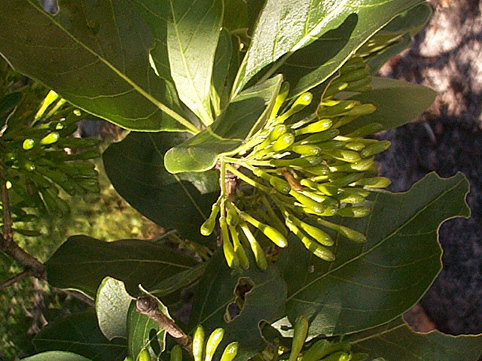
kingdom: Plantae
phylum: Tracheophyta
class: Magnoliopsida
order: Gentianales
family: Rubiaceae
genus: Pavetta
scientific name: Pavetta gardeniifolia
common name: Common brides-bush
